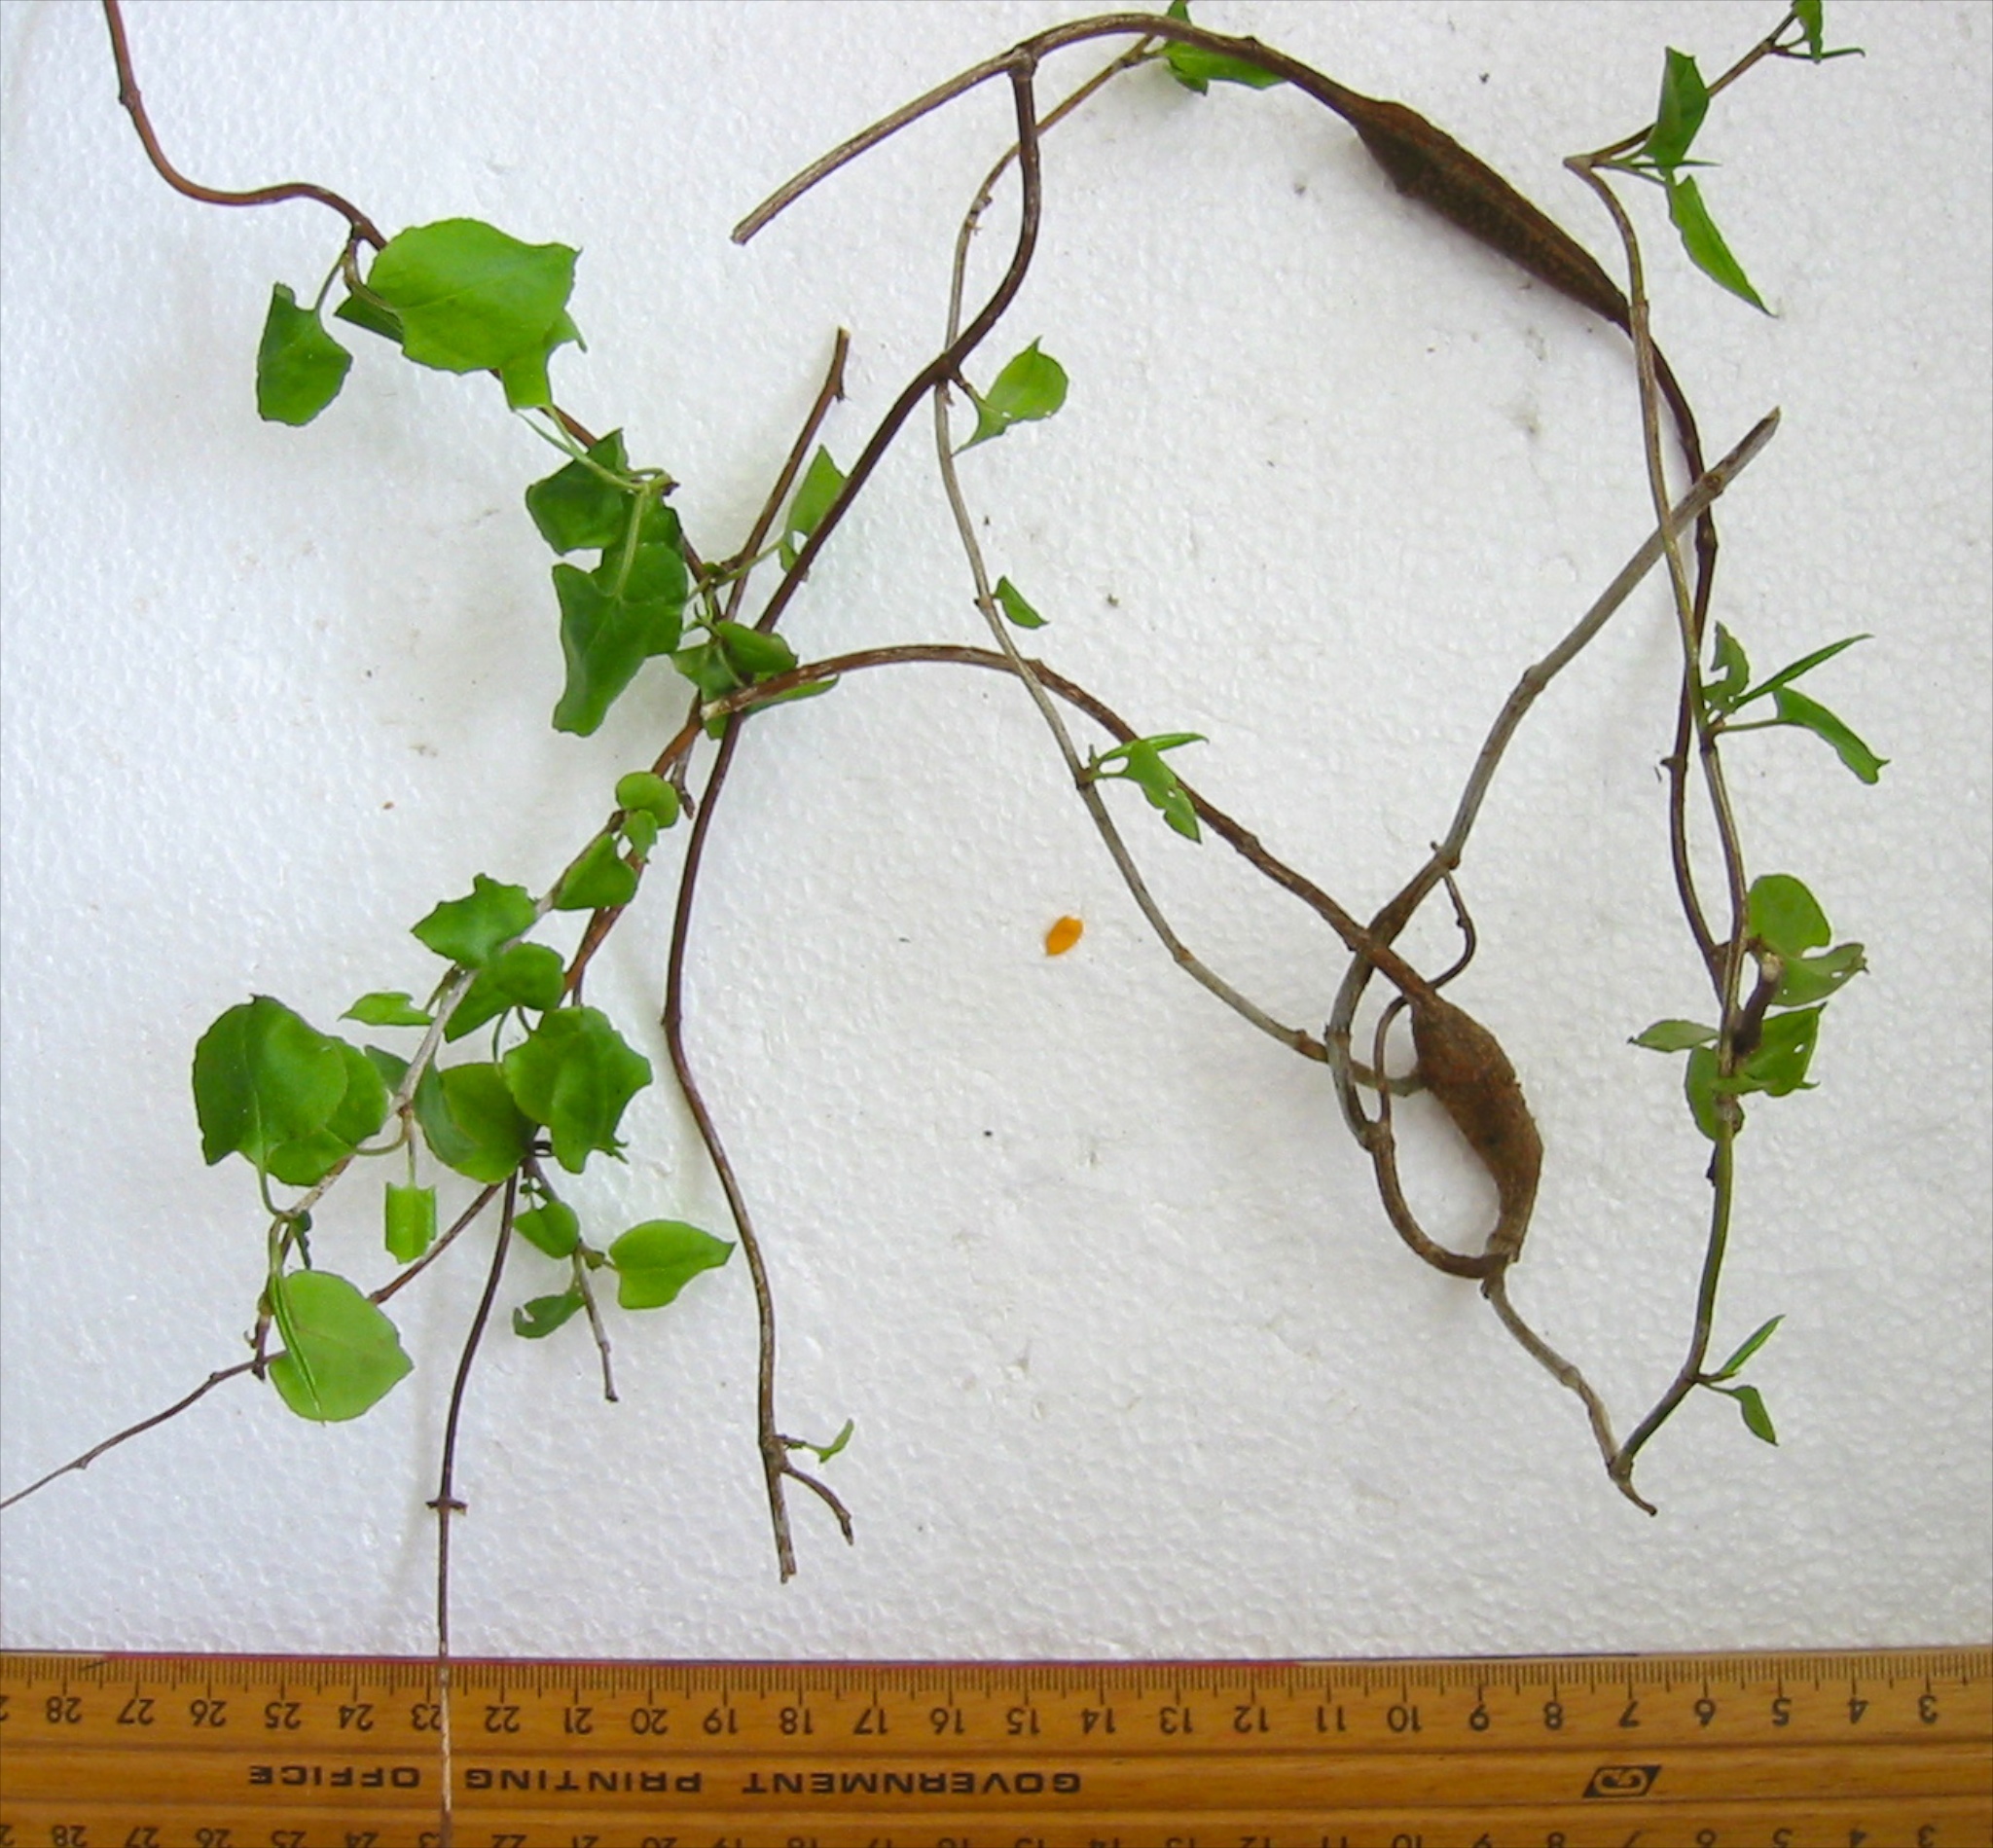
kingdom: Animalia
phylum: Arthropoda
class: Insecta
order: Lepidoptera
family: Thyrididae
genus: Morova
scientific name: Morova subfasciata
